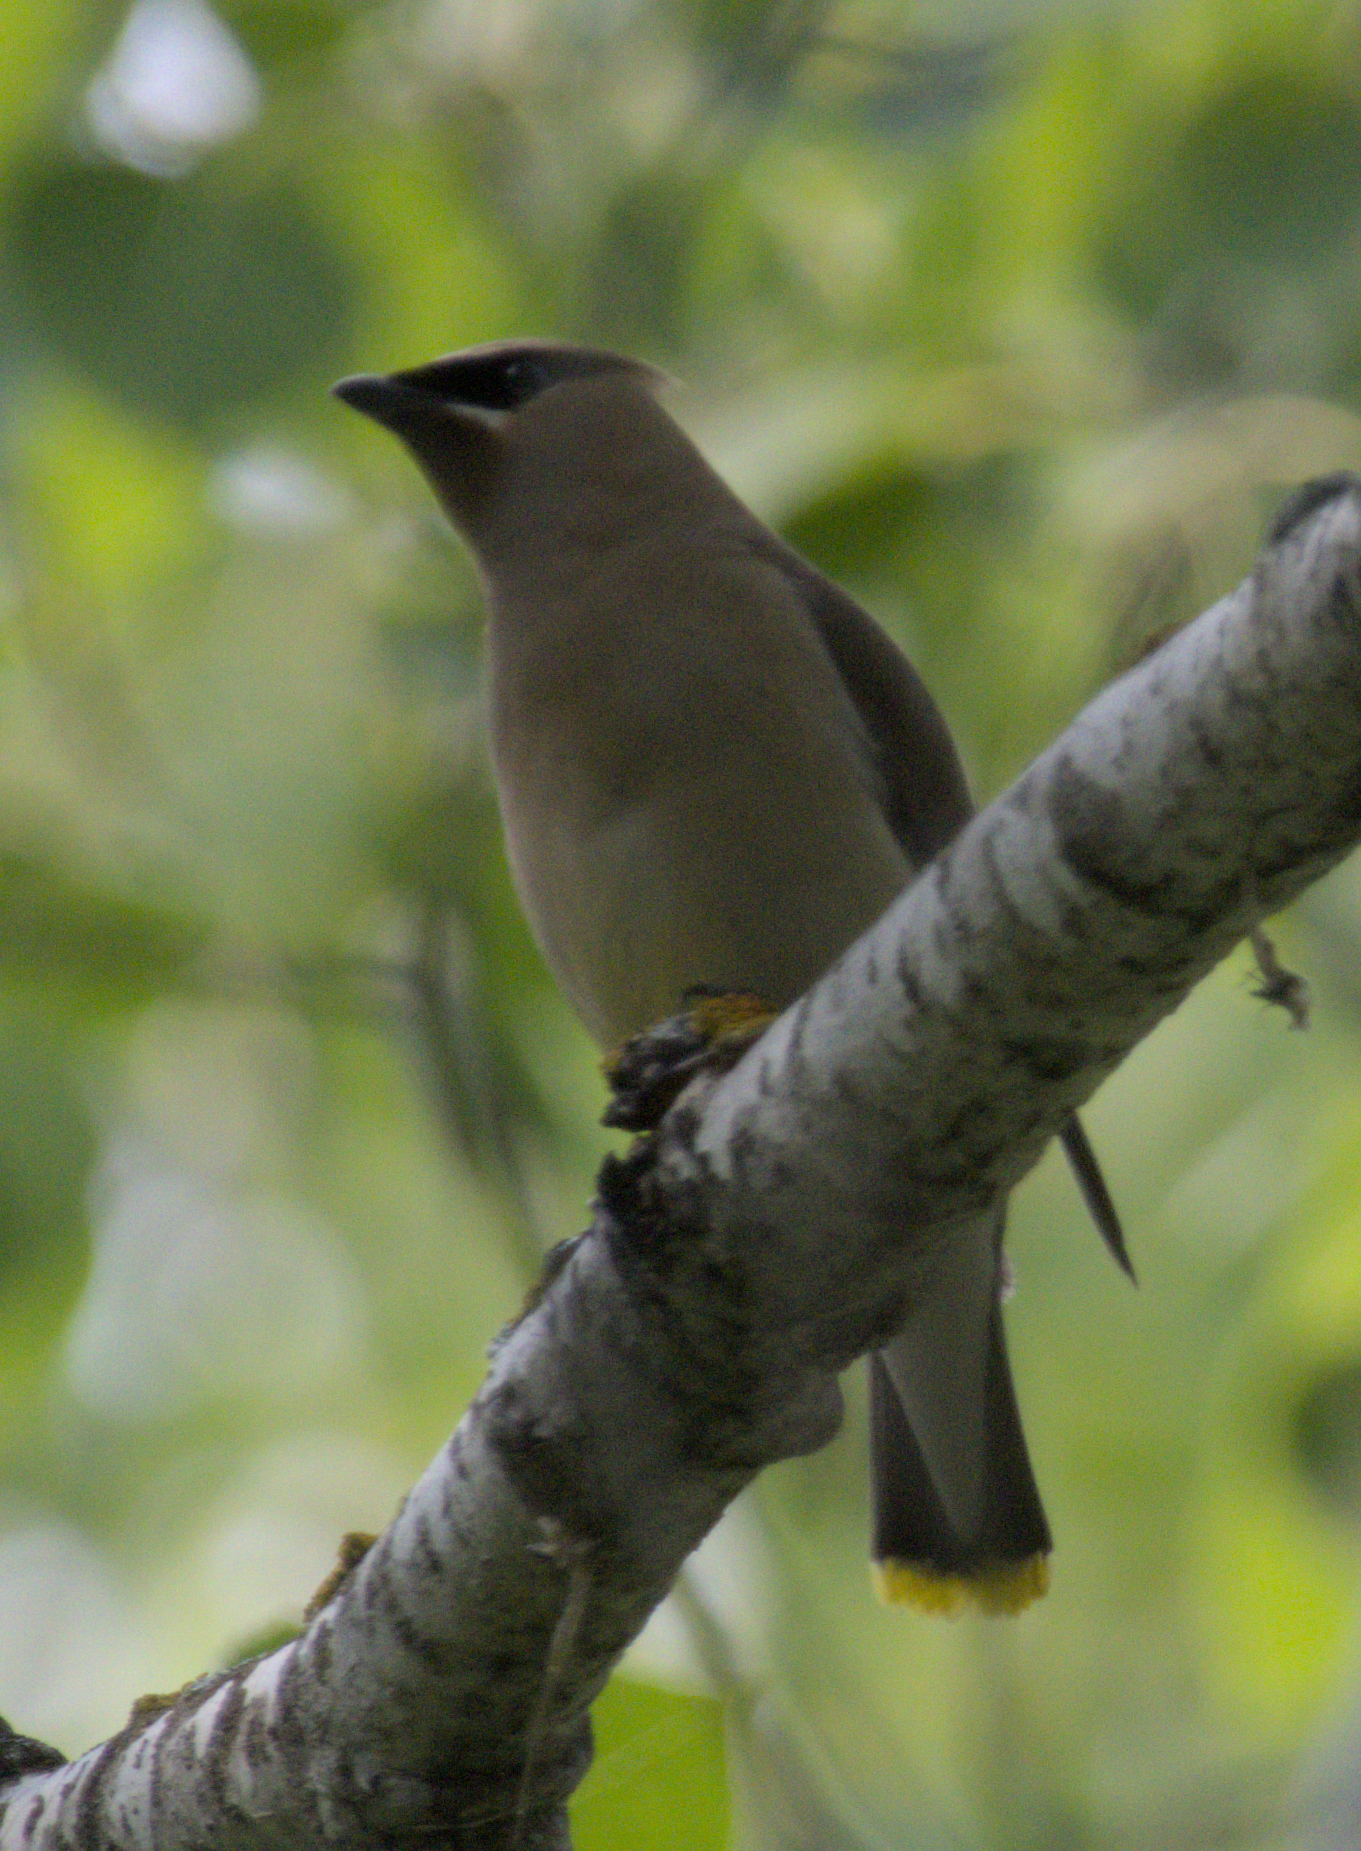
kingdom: Animalia
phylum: Chordata
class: Aves
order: Passeriformes
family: Bombycillidae
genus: Bombycilla
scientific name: Bombycilla cedrorum
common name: Cedar waxwing
